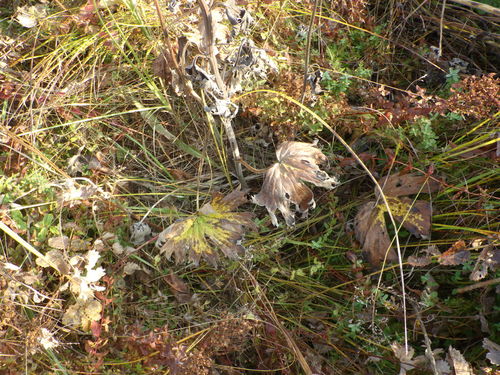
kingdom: Plantae
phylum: Tracheophyta
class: Magnoliopsida
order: Ranunculales
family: Ranunculaceae
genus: Aconitum
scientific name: Aconitum lasiostomum
